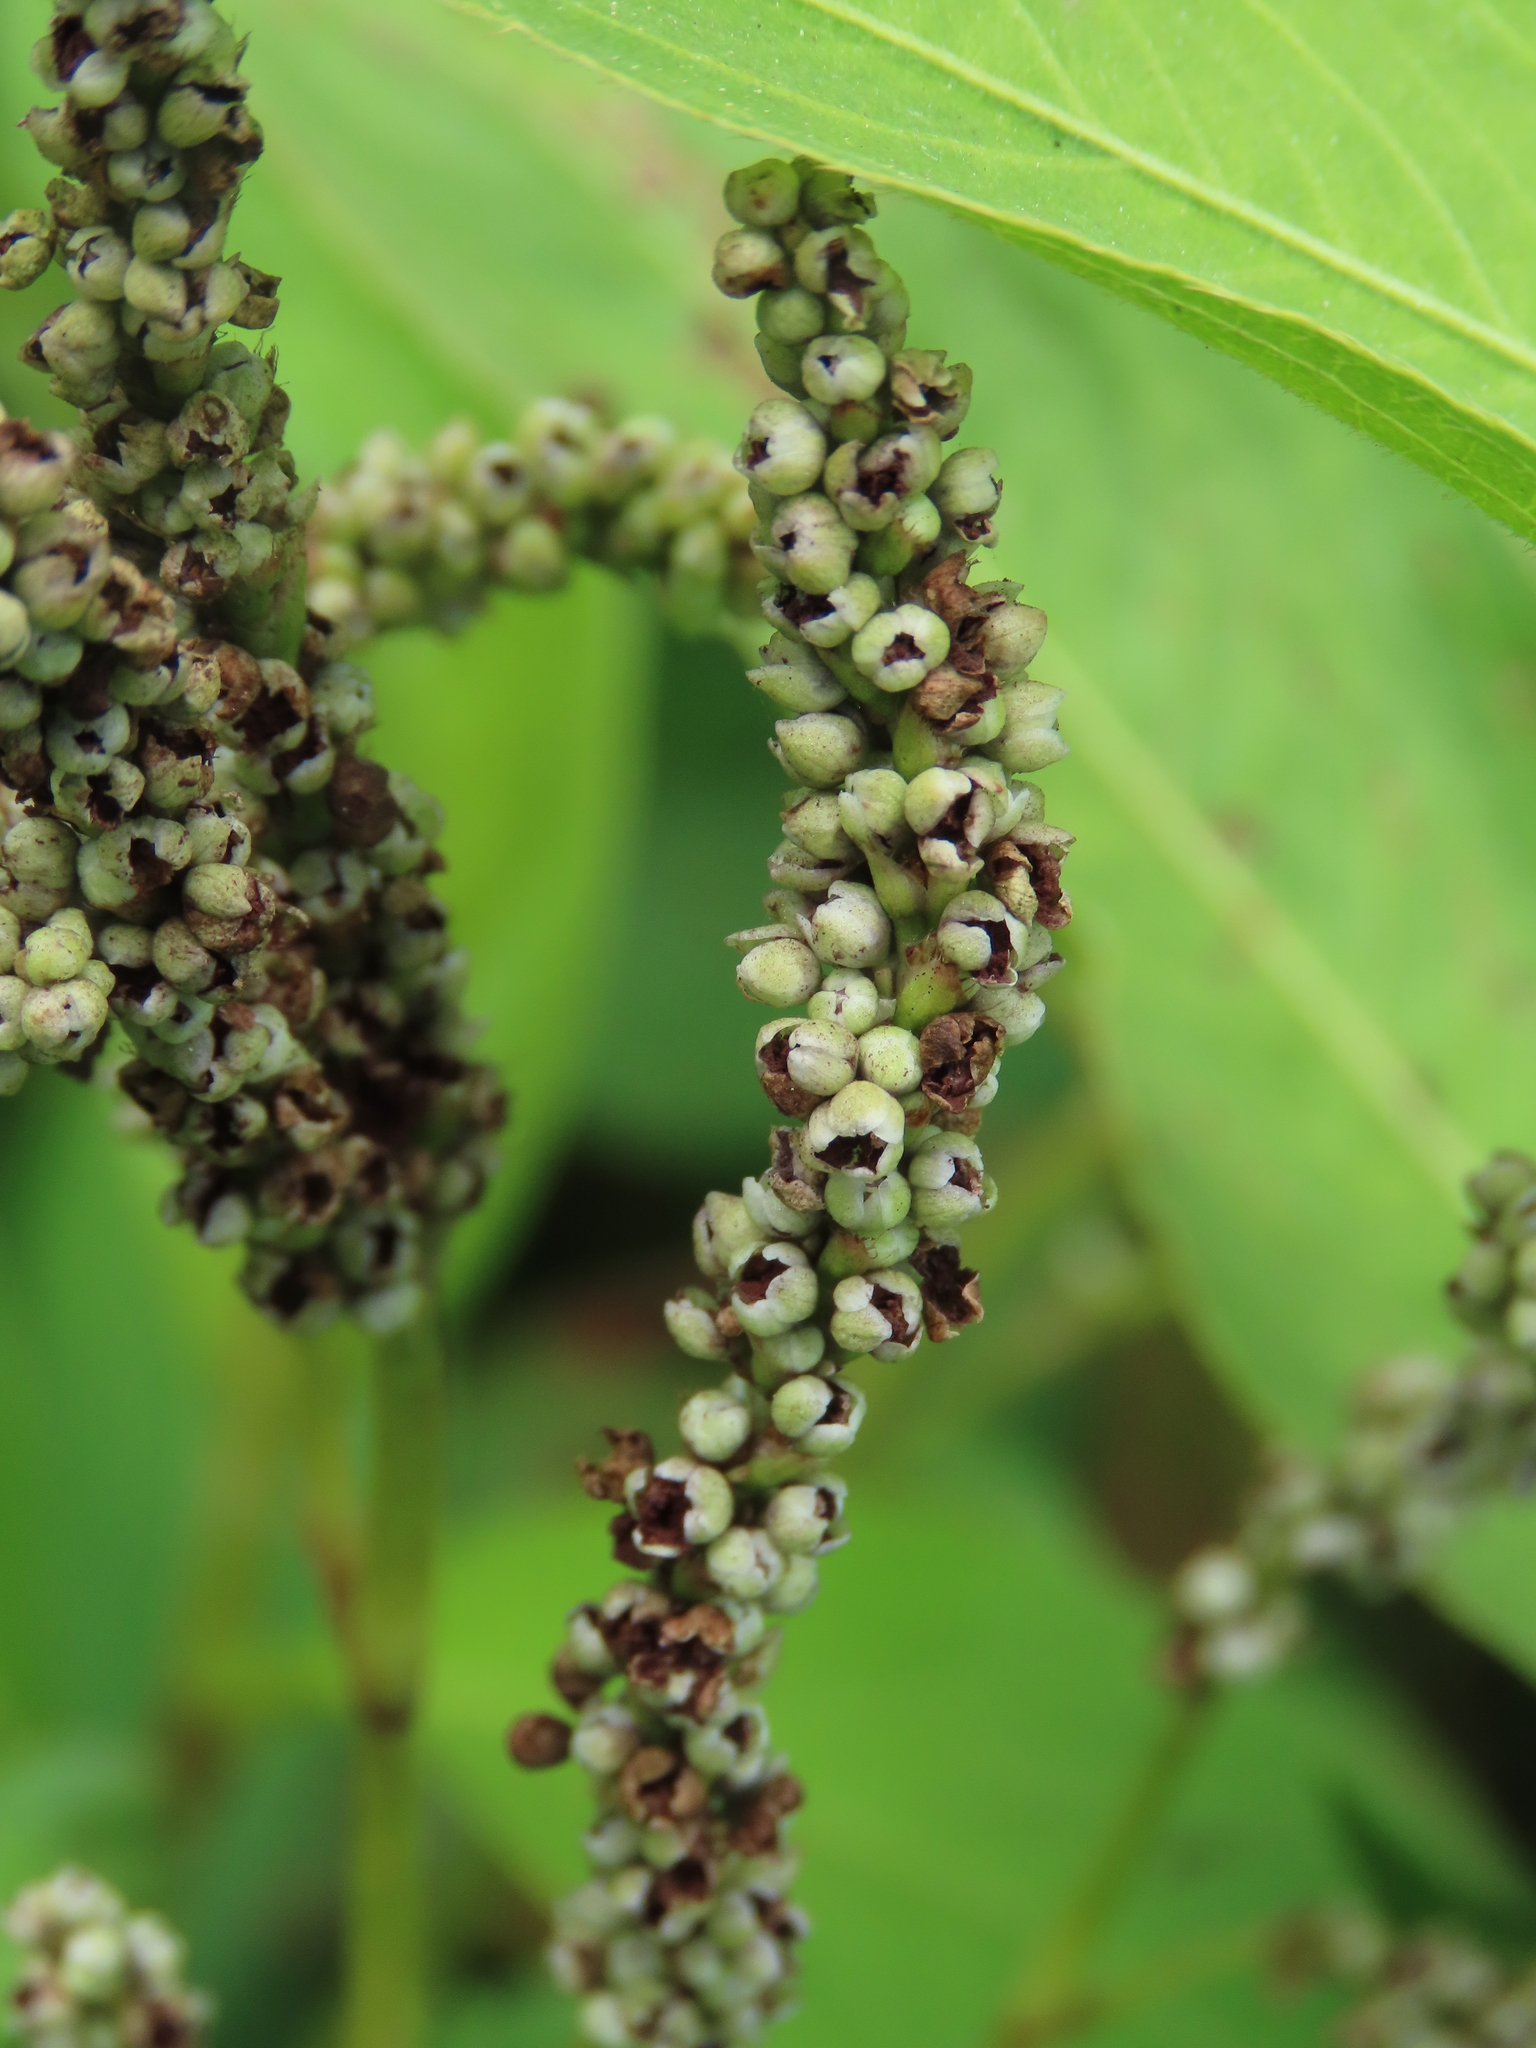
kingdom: Plantae
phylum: Tracheophyta
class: Magnoliopsida
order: Caryophyllales
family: Polygonaceae
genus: Persicaria
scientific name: Persicaria barbata
